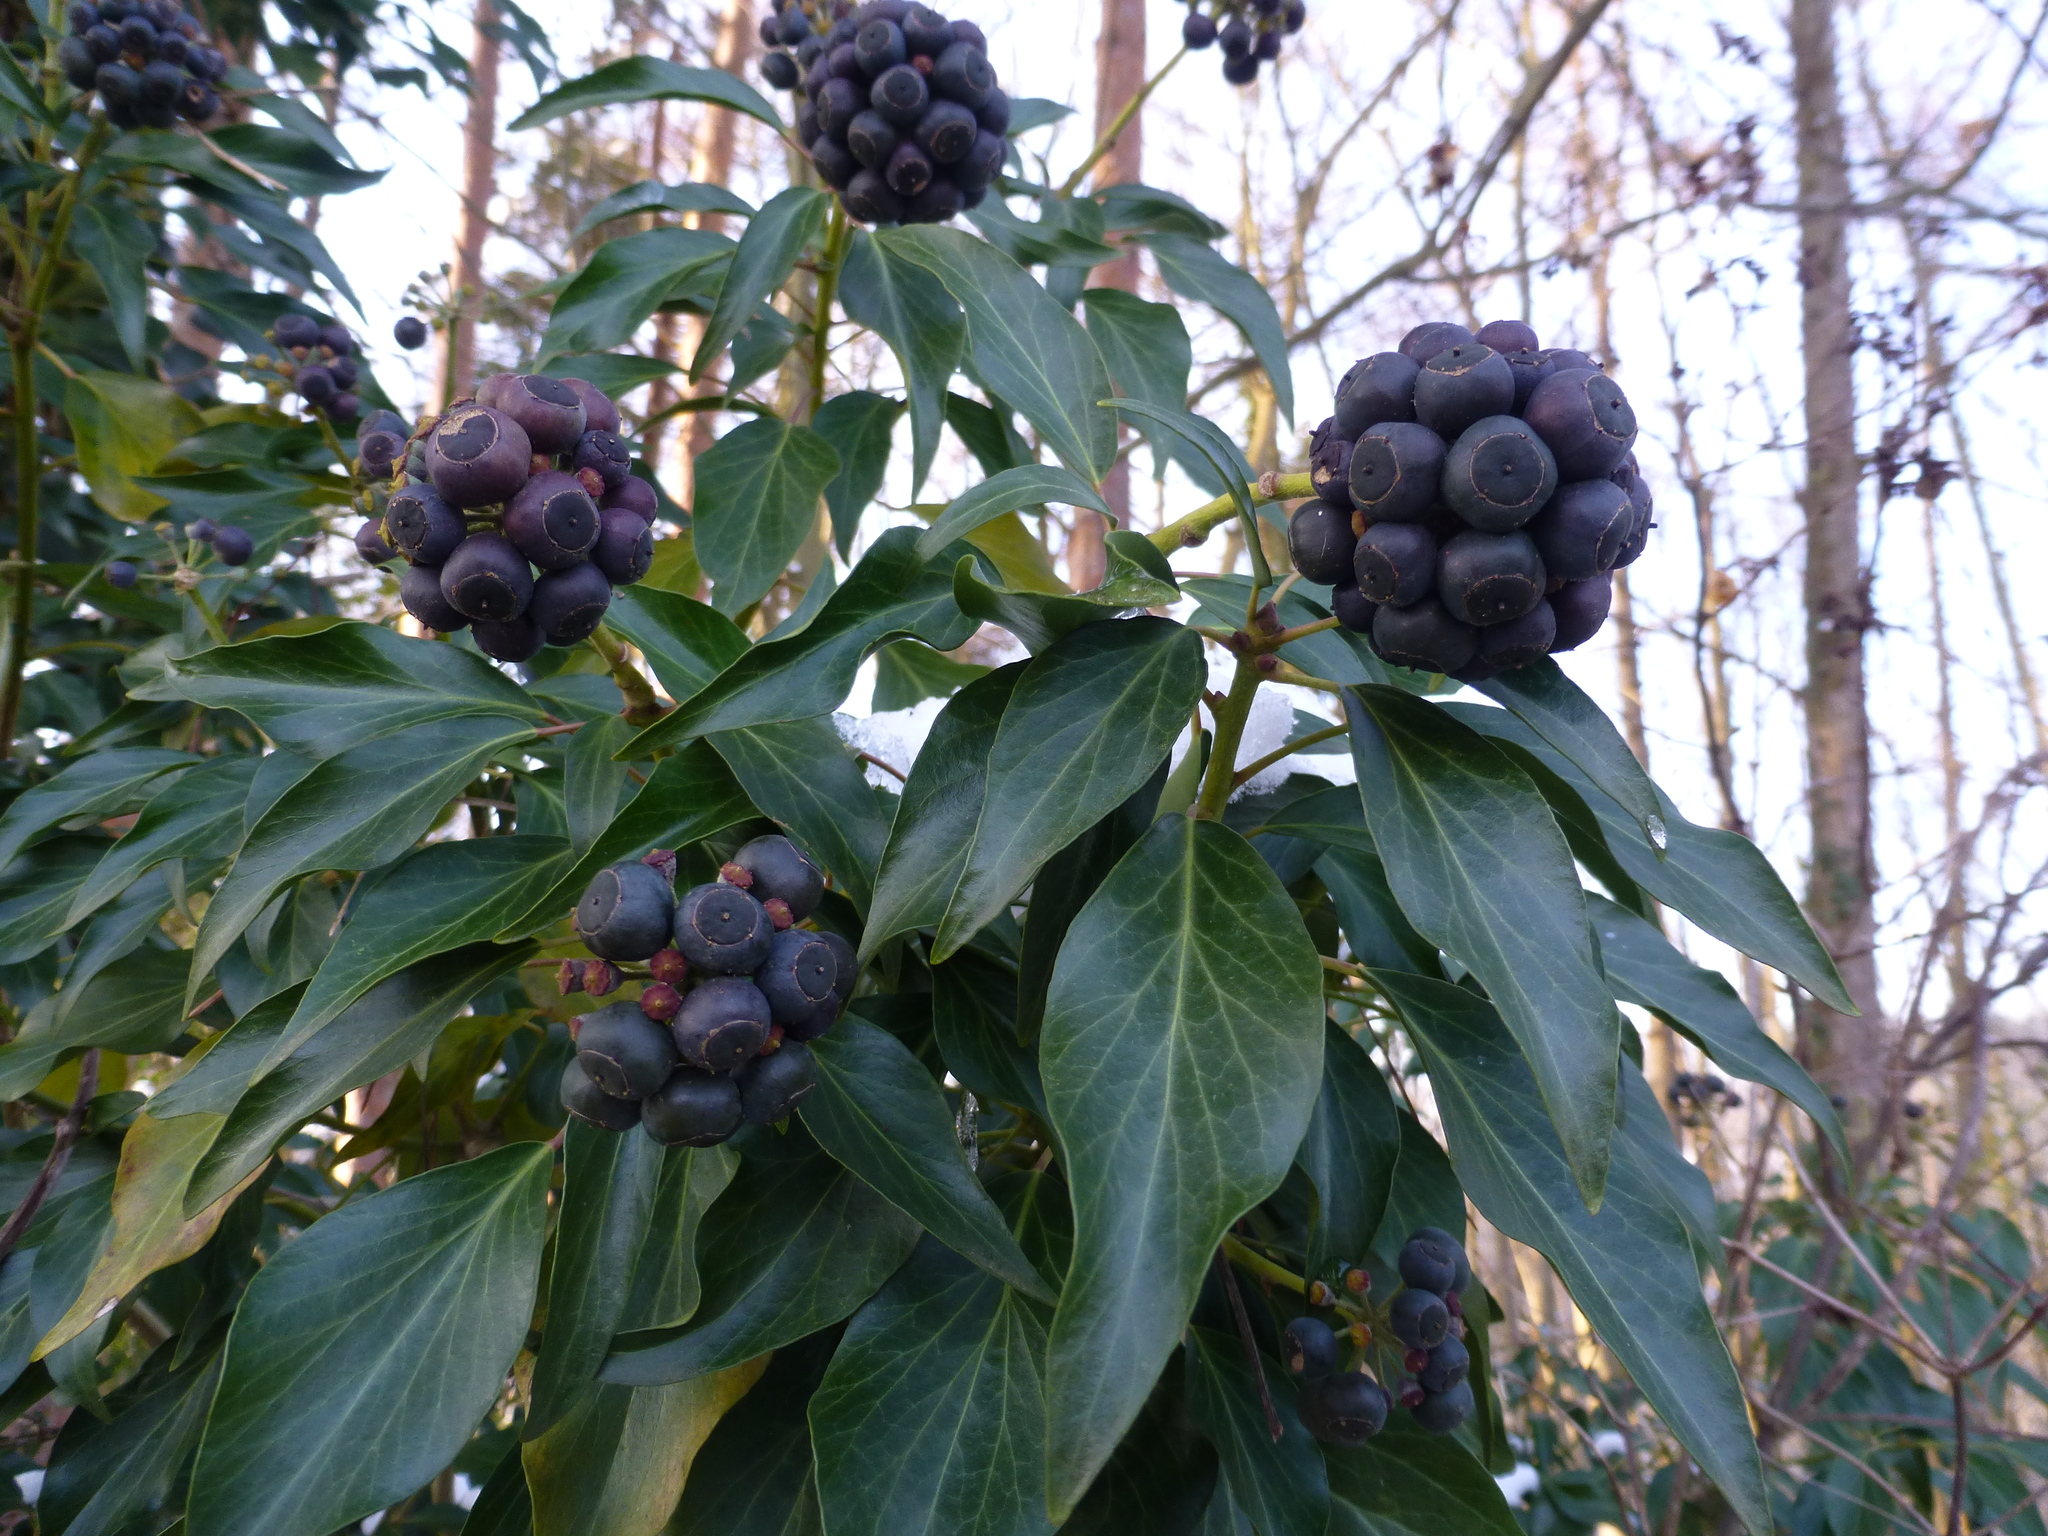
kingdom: Plantae
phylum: Tracheophyta
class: Magnoliopsida
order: Apiales
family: Araliaceae
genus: Hedera
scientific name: Hedera helix
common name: Ivy
